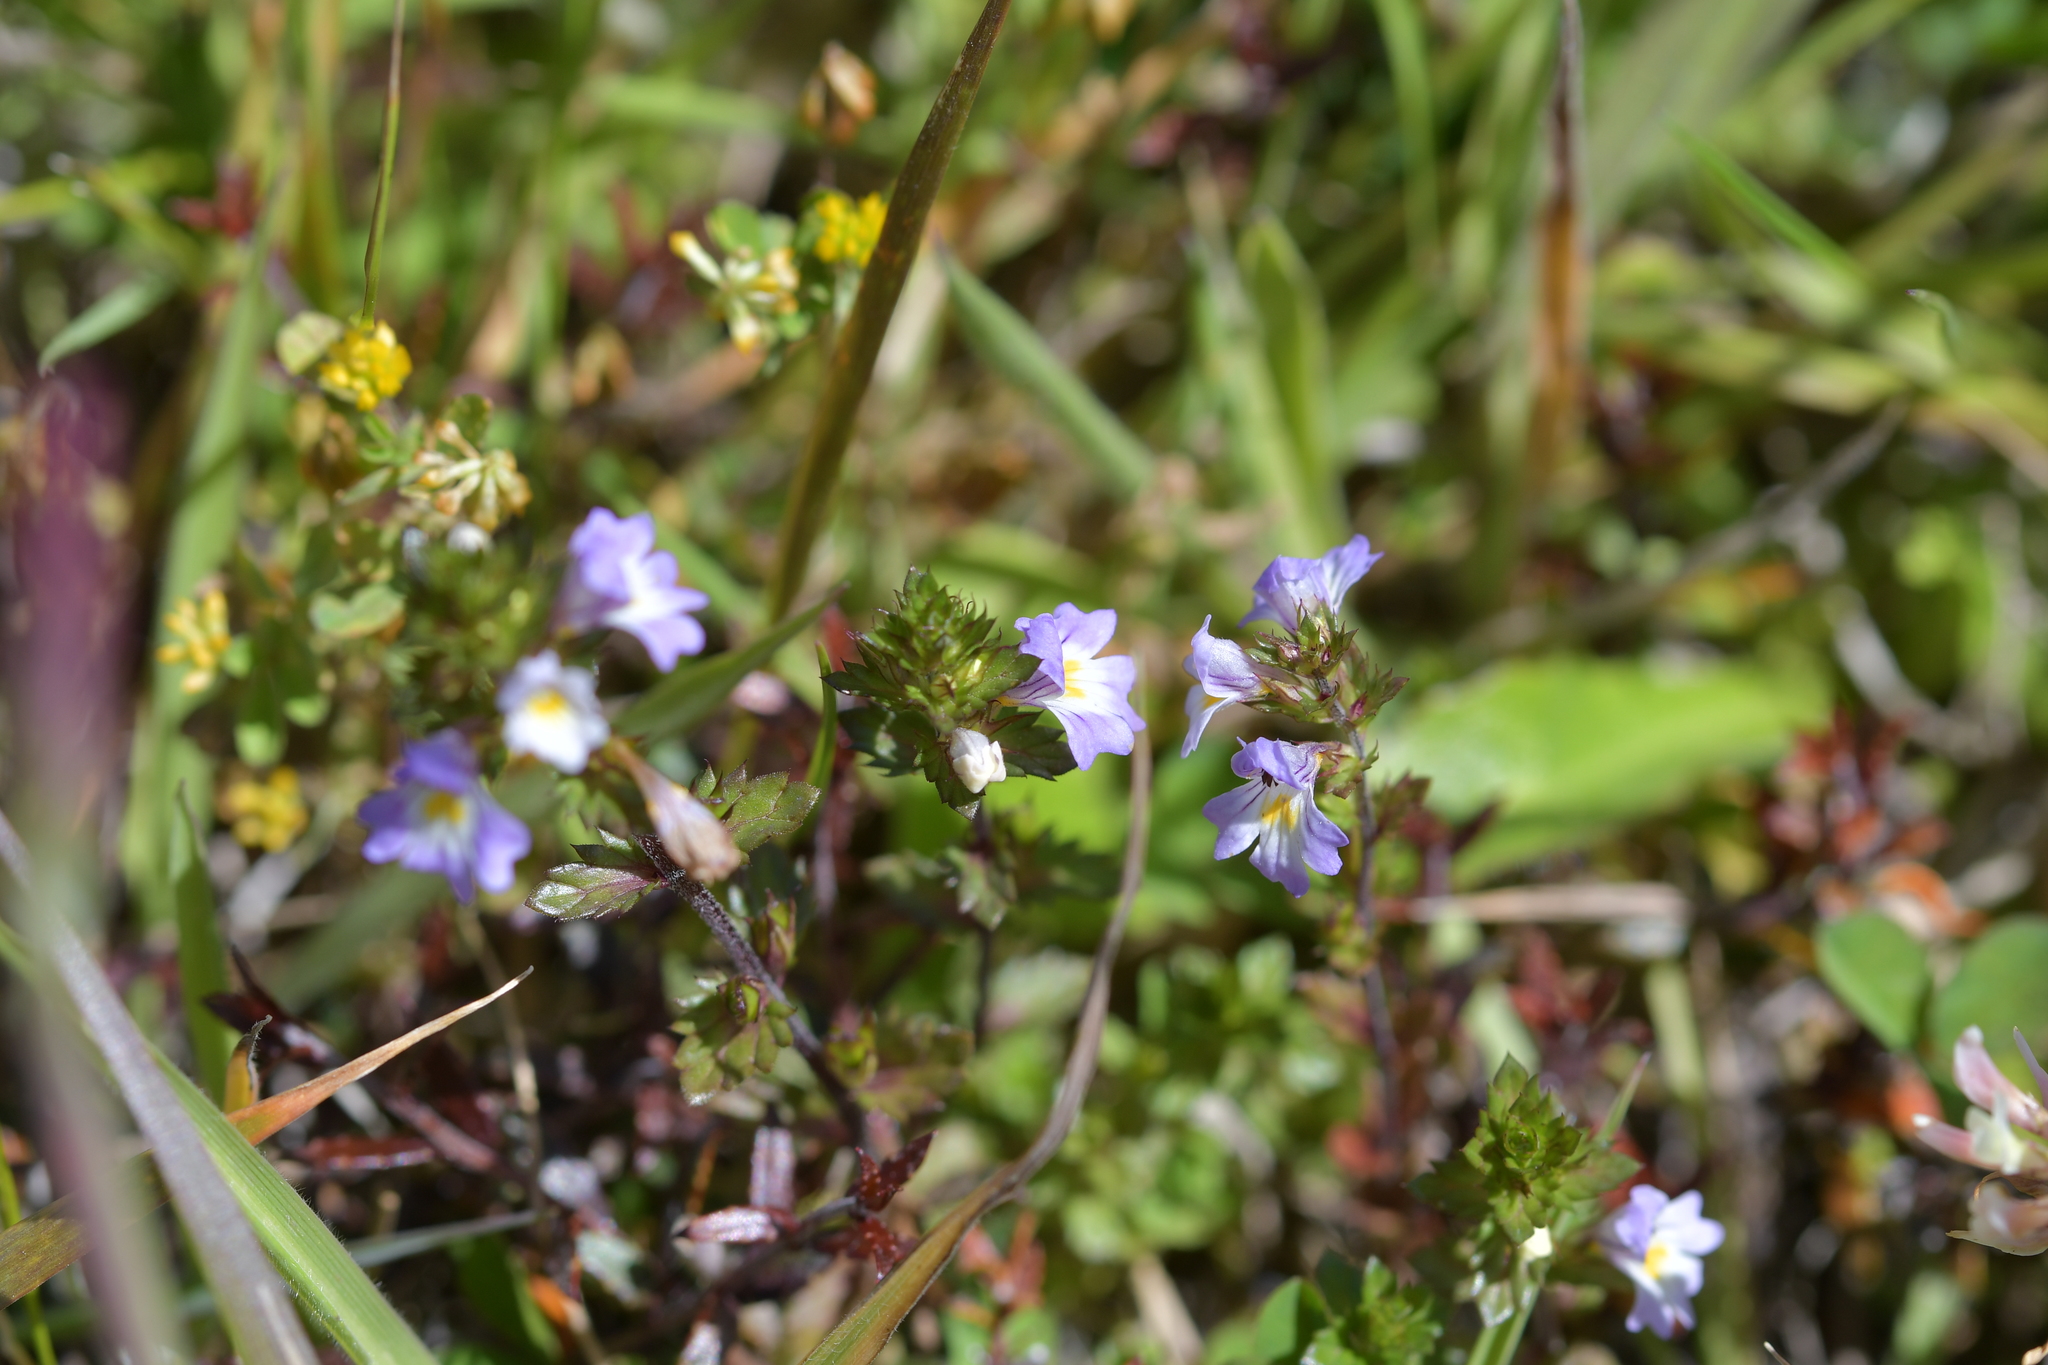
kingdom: Plantae
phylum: Tracheophyta
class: Magnoliopsida
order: Lamiales
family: Orobanchaceae
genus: Euphrasia
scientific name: Euphrasia nemorosa
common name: Common eyebright
